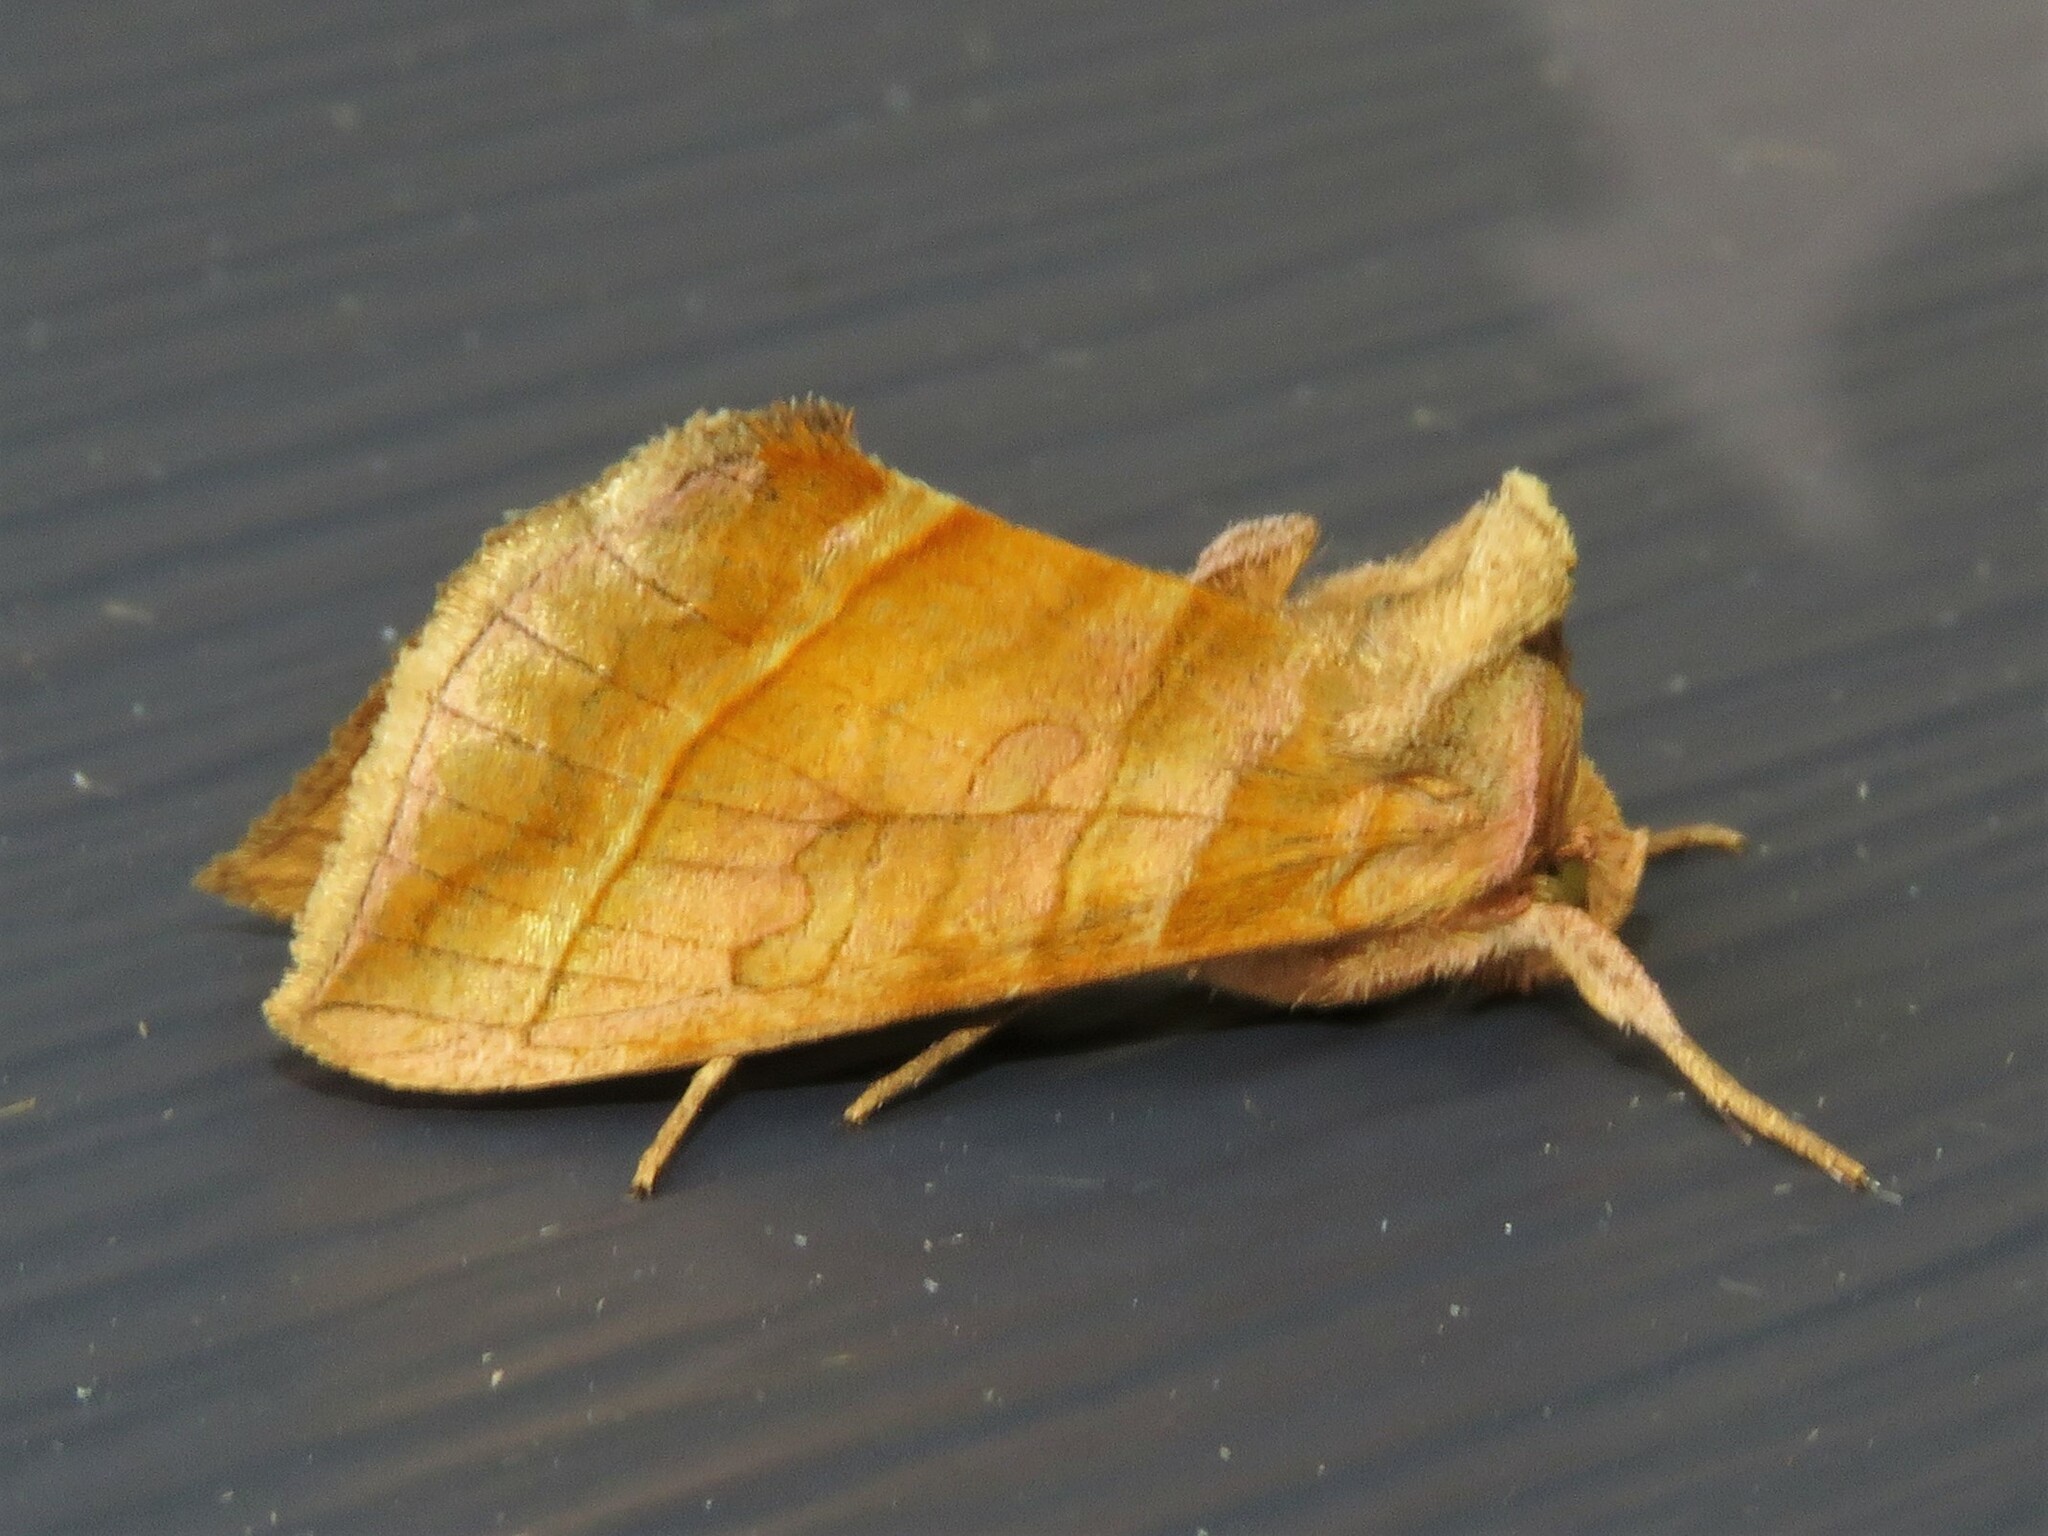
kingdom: Animalia
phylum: Arthropoda
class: Insecta
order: Lepidoptera
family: Noctuidae
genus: Diachrysia
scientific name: Diachrysia aereoides
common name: Dark-spotted looper moth
